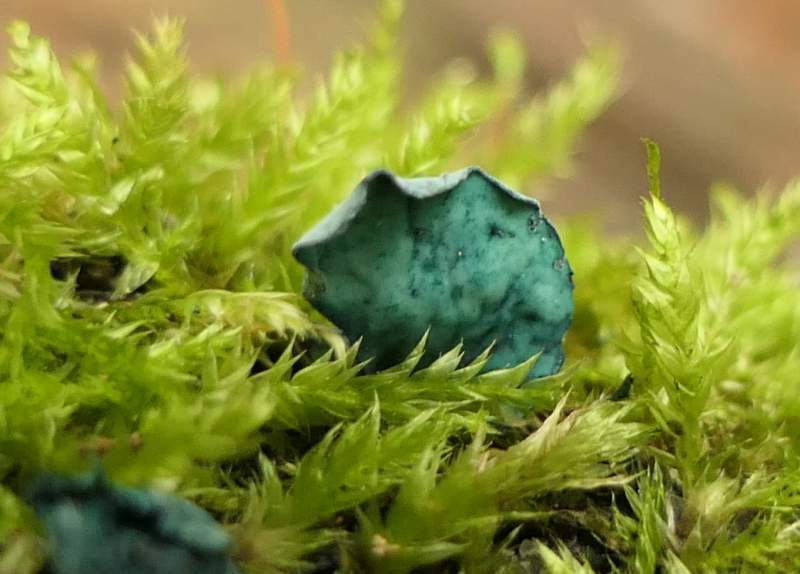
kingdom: Fungi
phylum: Ascomycota
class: Leotiomycetes
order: Helotiales
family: Chlorociboriaceae
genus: Chlorociboria
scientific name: Chlorociboria
